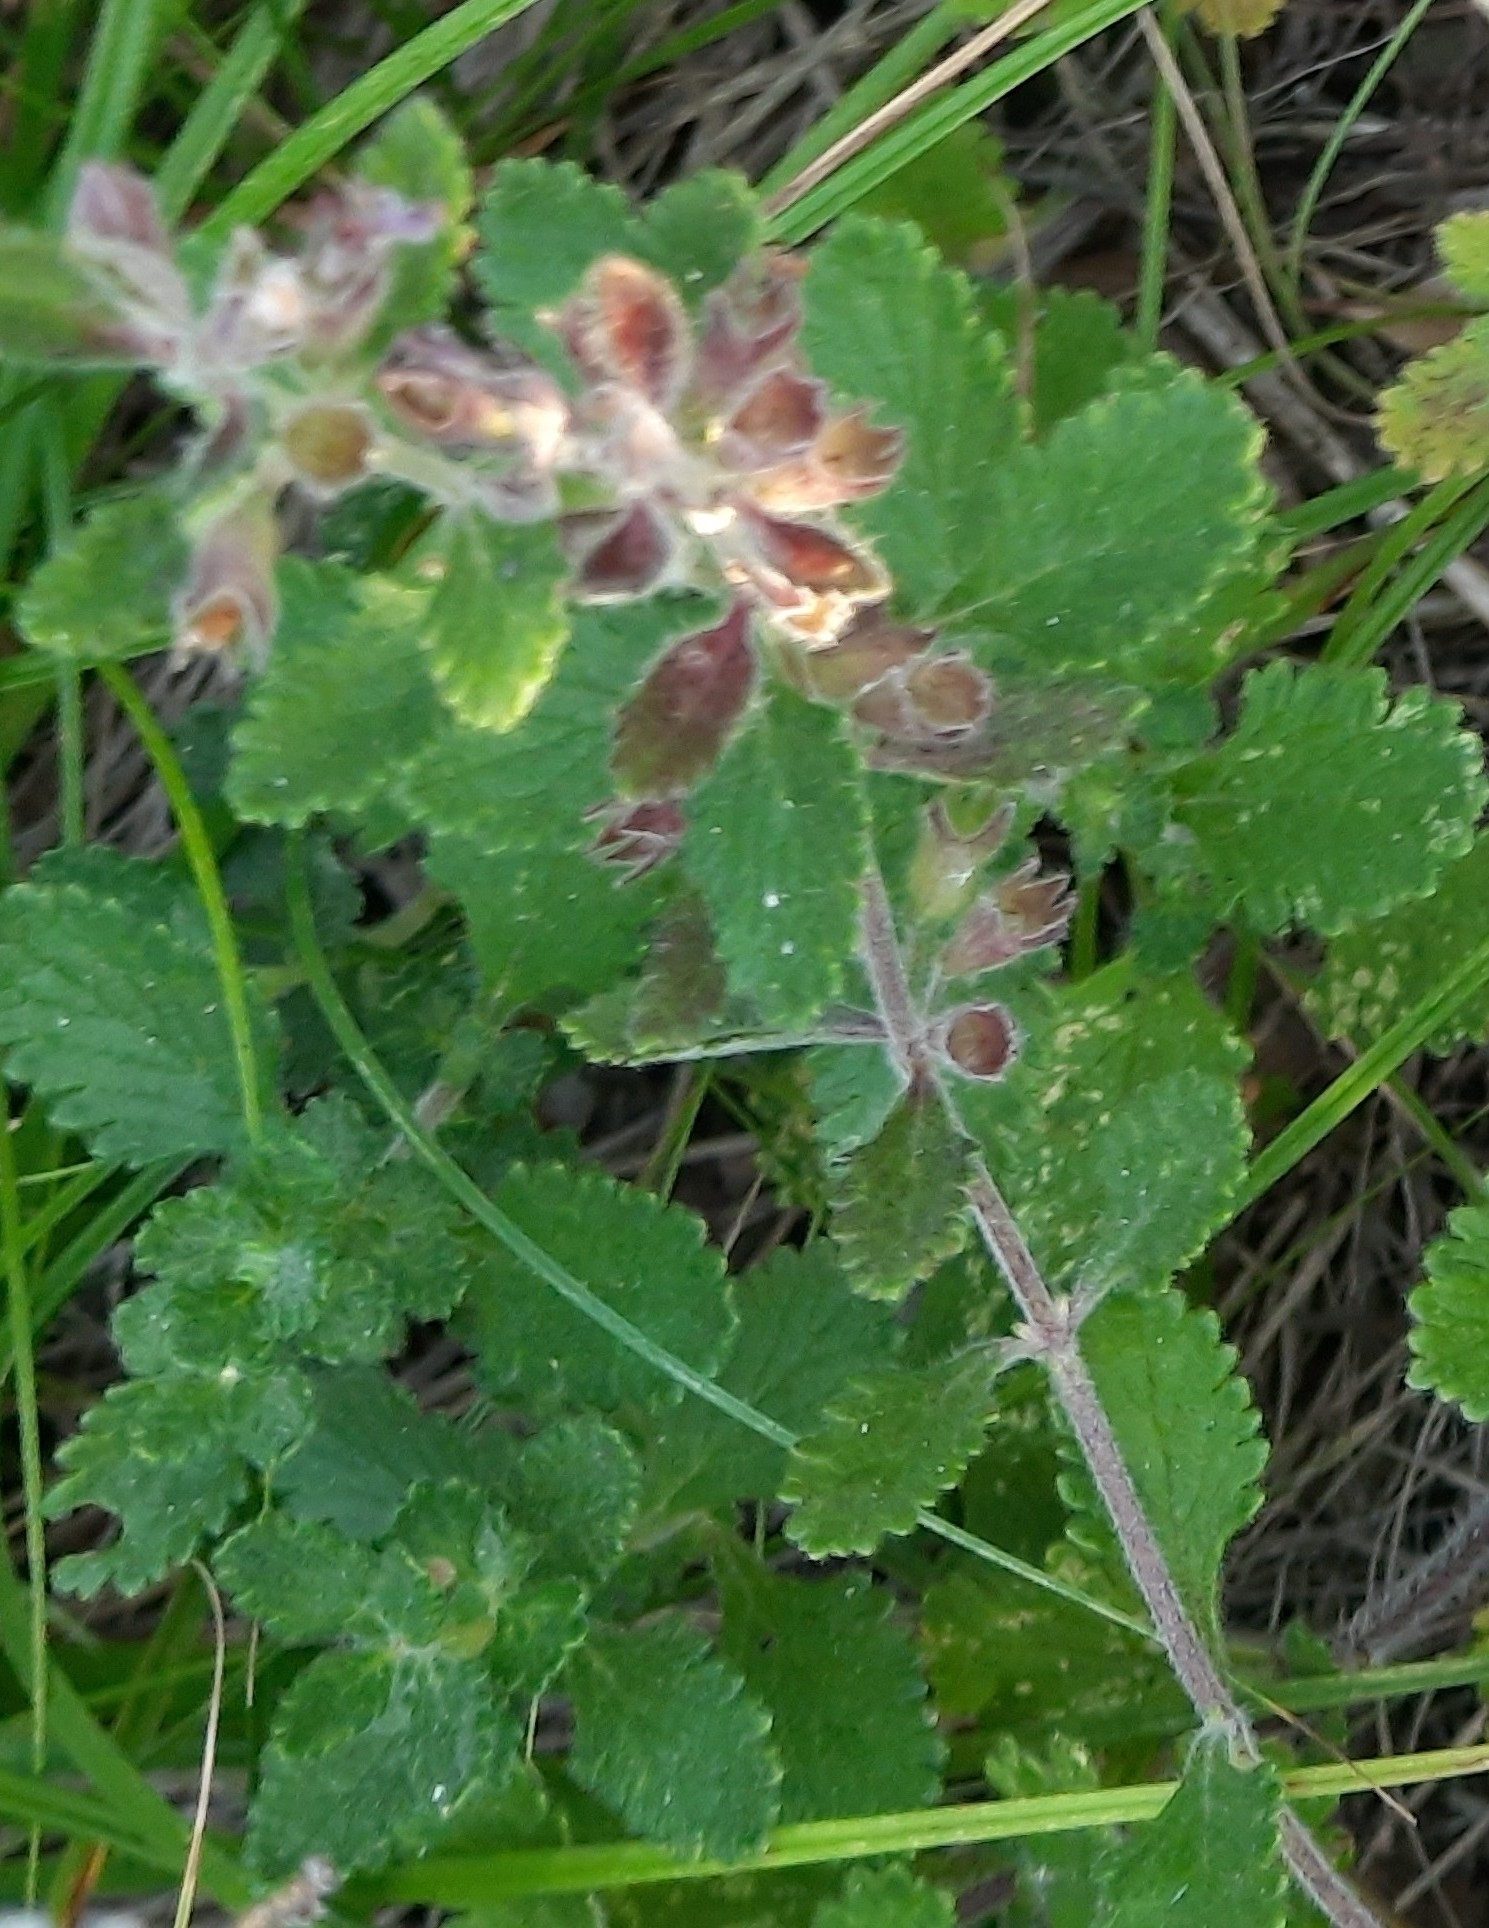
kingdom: Plantae
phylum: Tracheophyta
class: Magnoliopsida
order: Lamiales
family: Lamiaceae
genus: Teucrium
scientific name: Teucrium chamaedrys
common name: Wall germander
